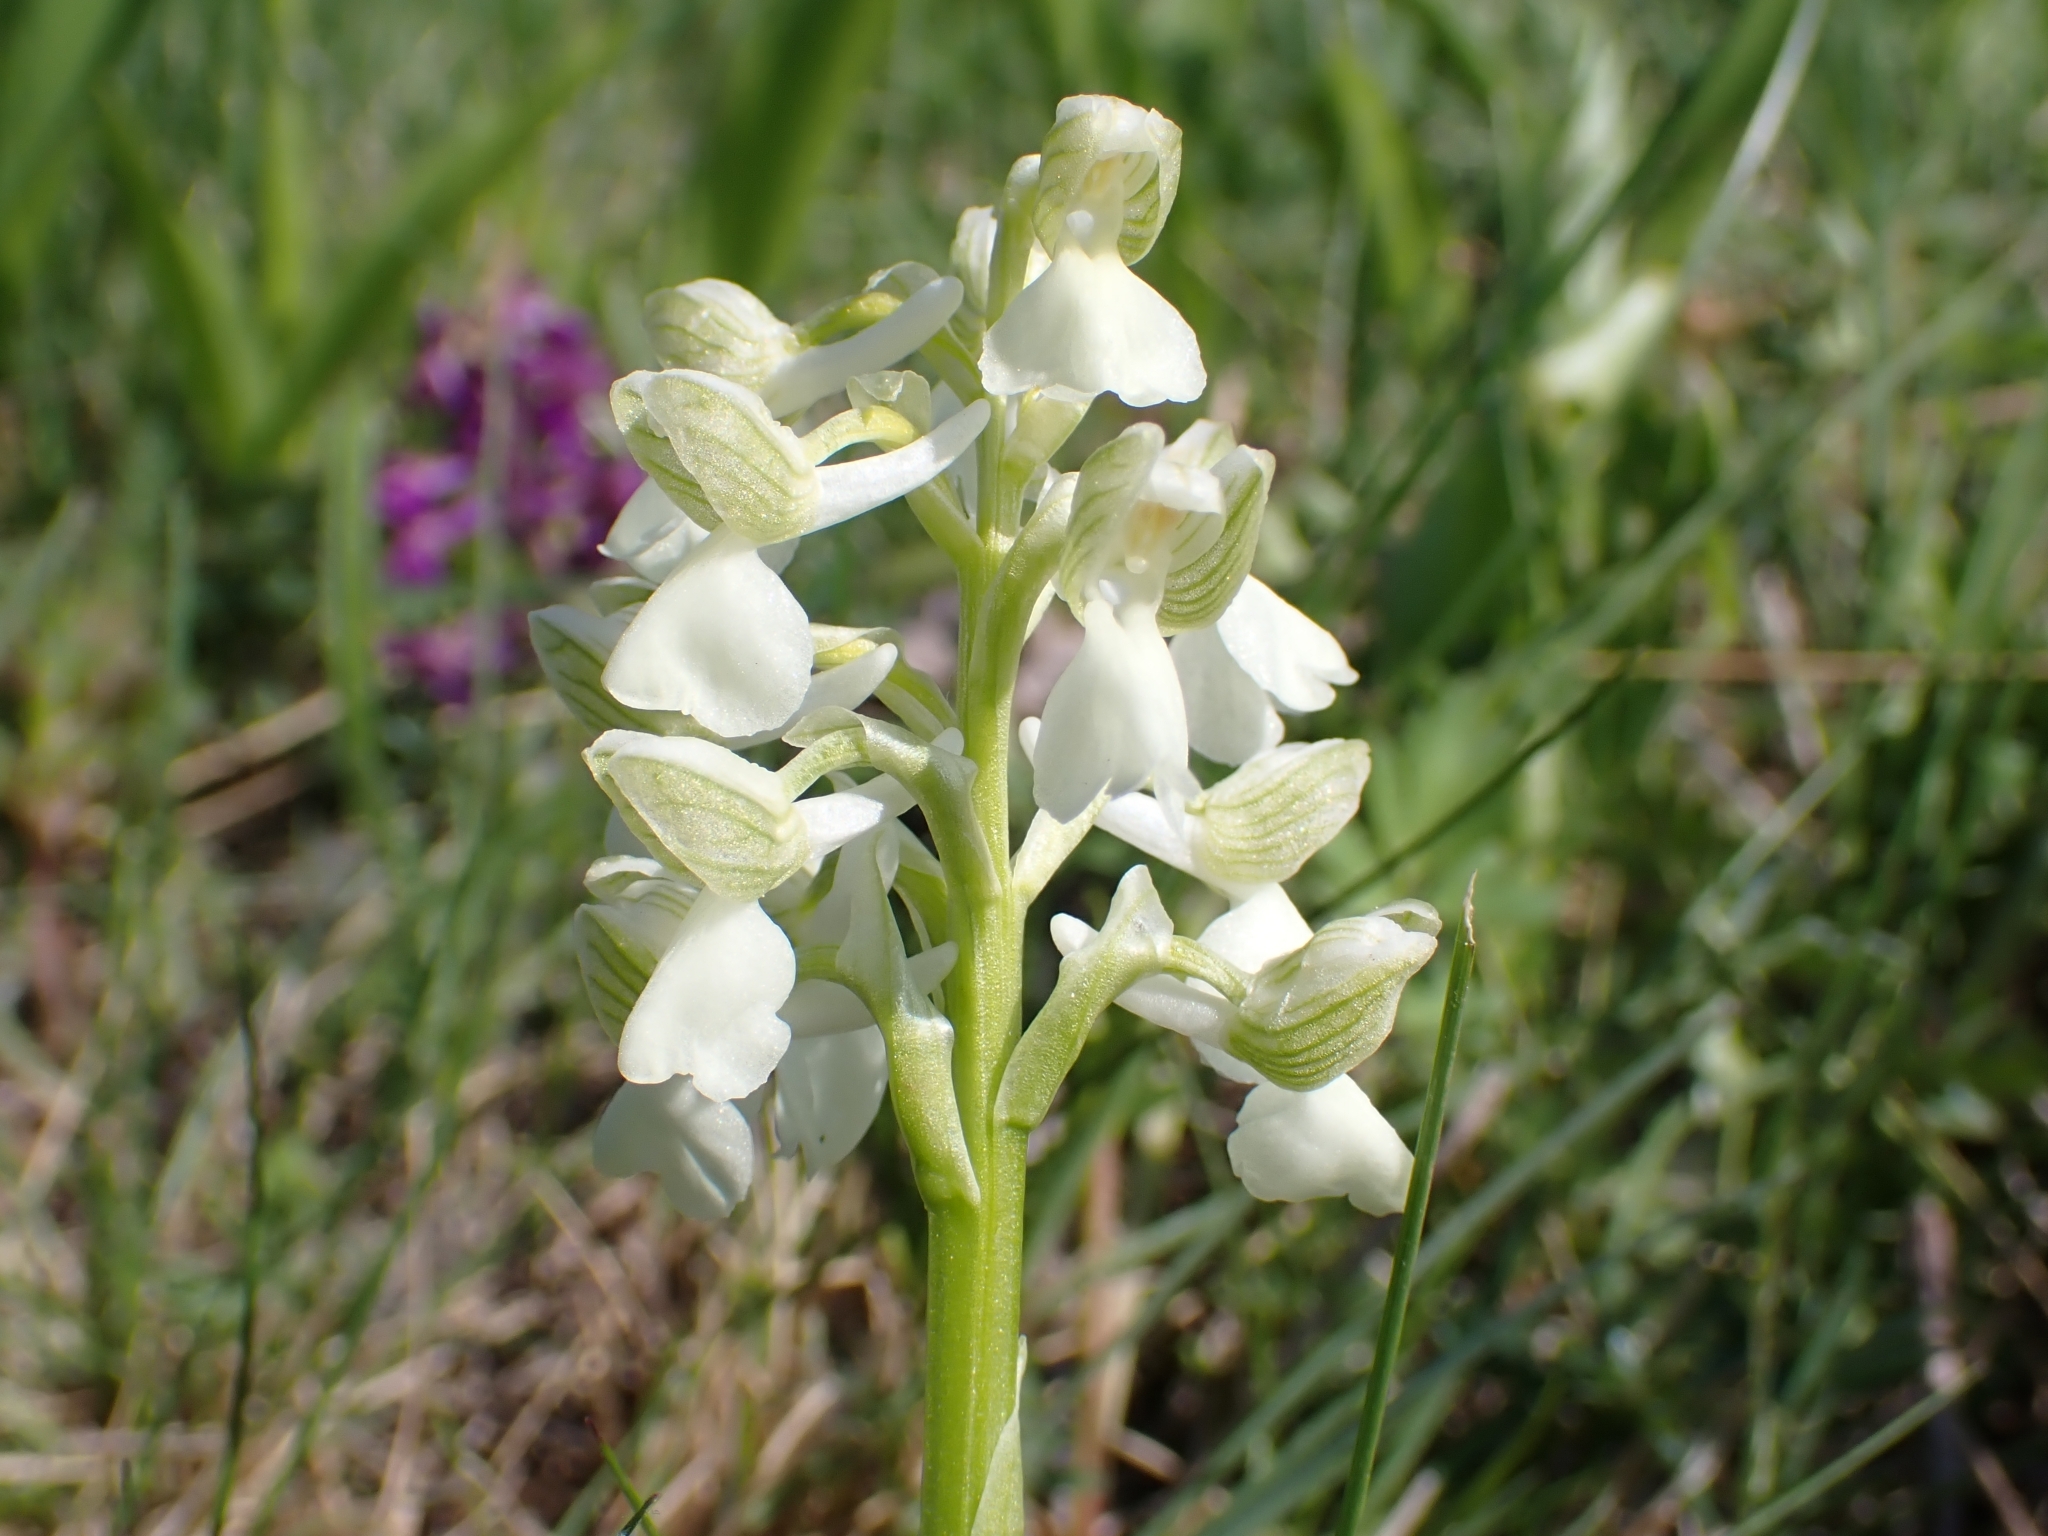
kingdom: Plantae
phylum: Tracheophyta
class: Liliopsida
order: Asparagales
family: Orchidaceae
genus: Anacamptis
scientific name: Anacamptis morio
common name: Green-winged orchid
